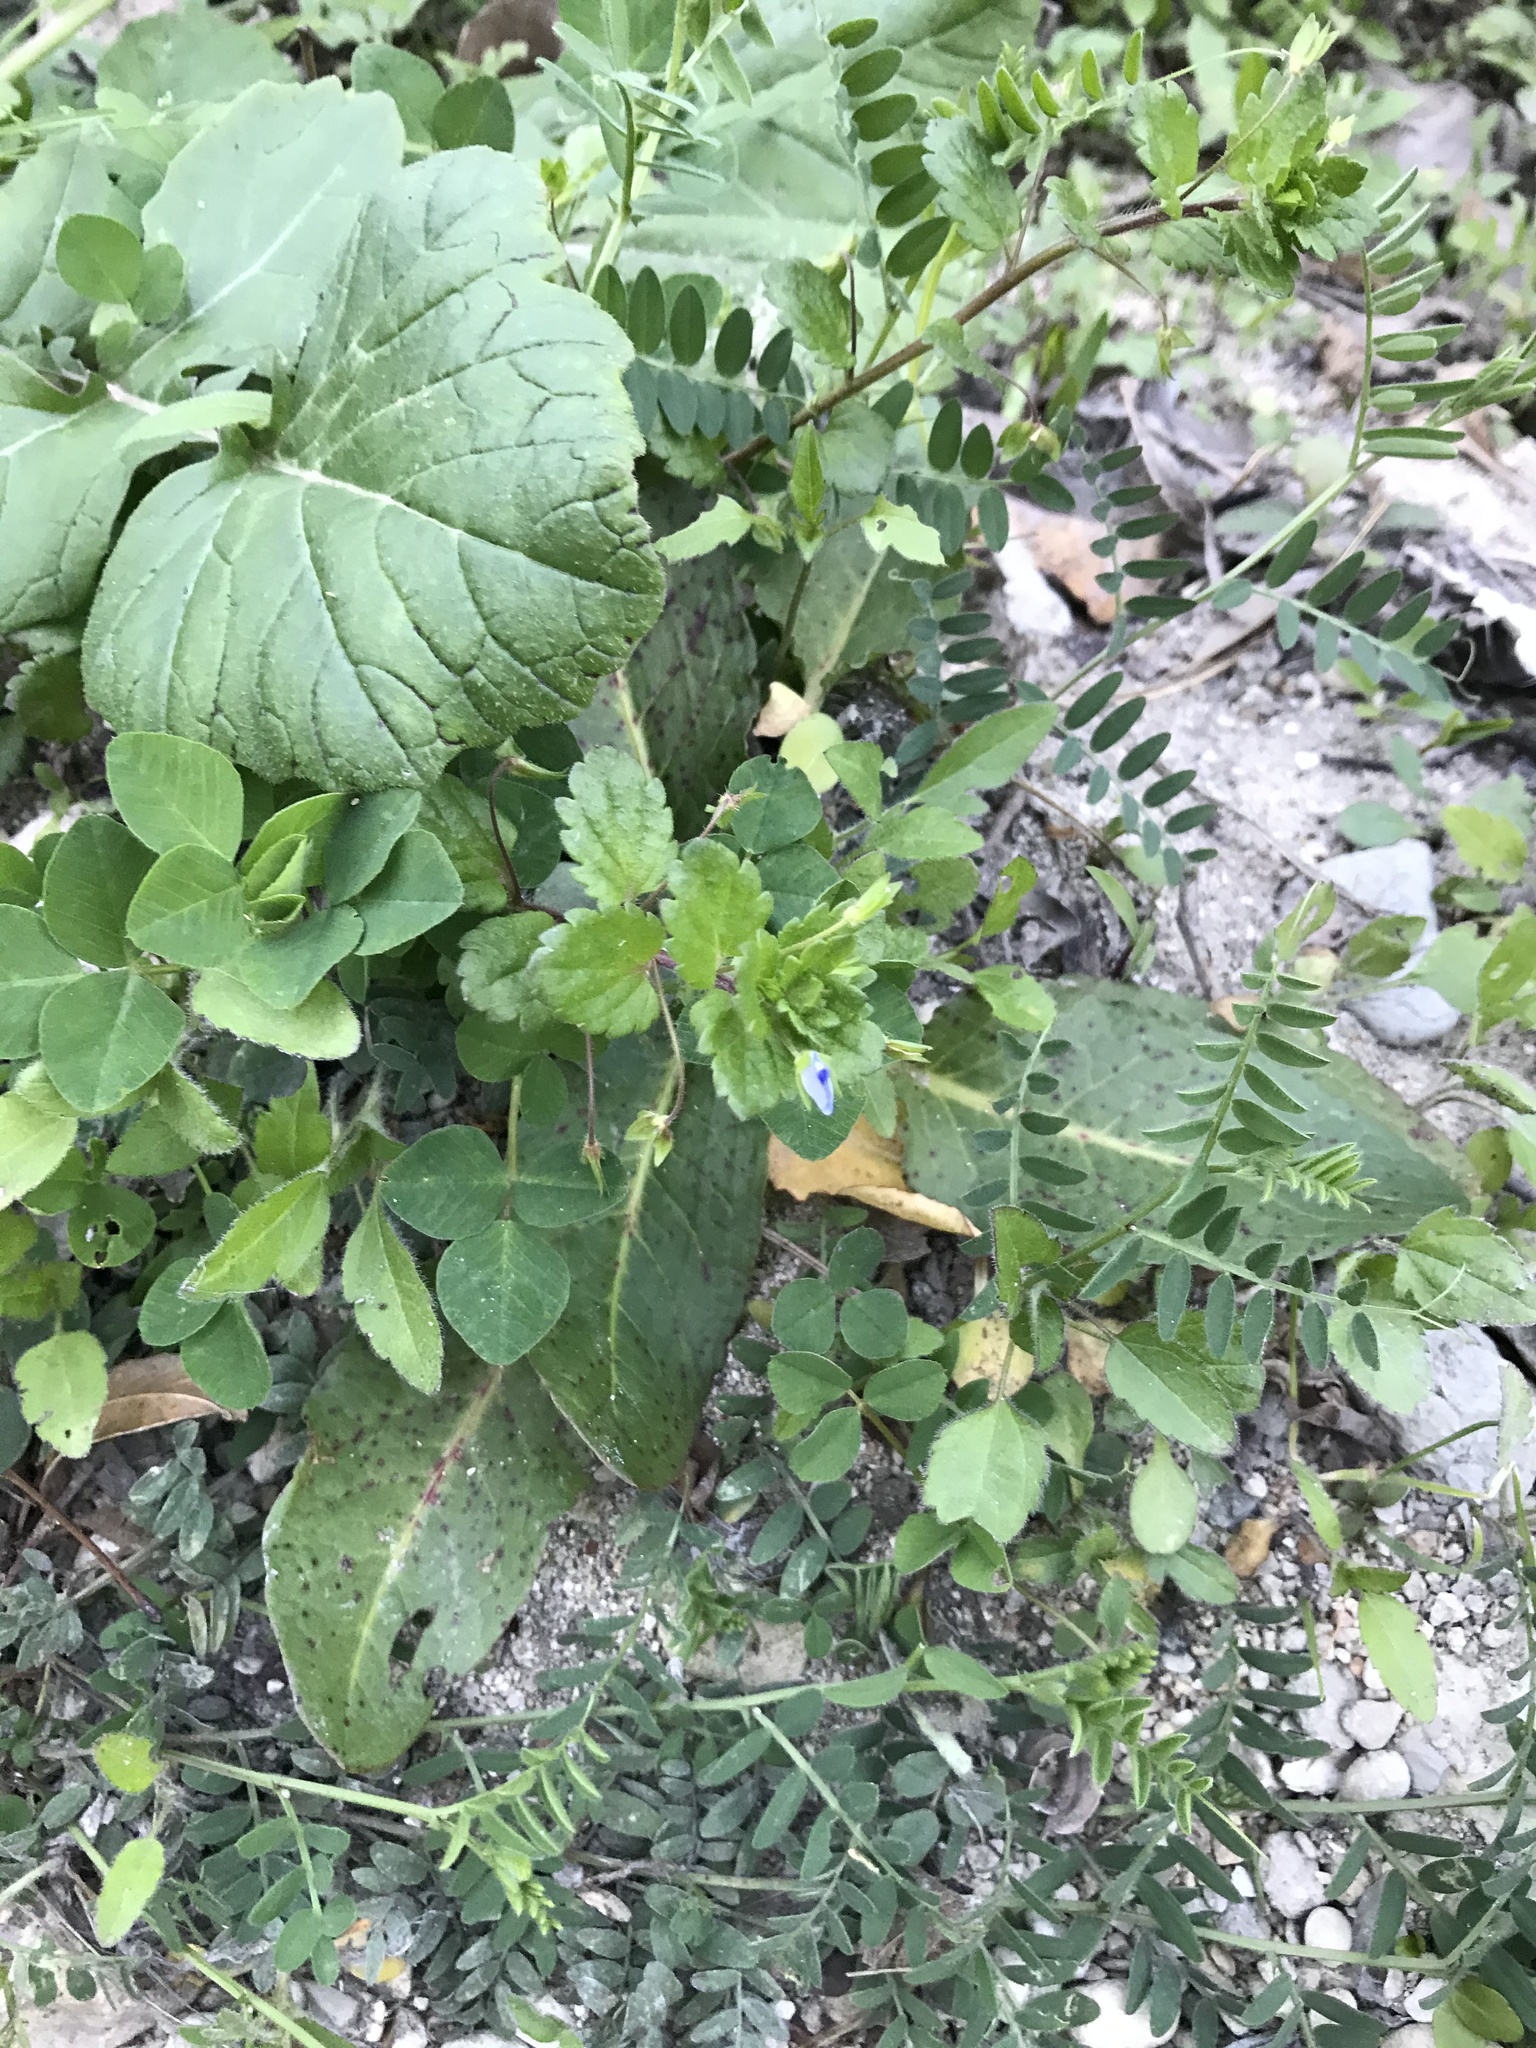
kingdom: Plantae
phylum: Tracheophyta
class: Magnoliopsida
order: Lamiales
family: Plantaginaceae
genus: Veronica
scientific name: Veronica persica
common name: Common field-speedwell
